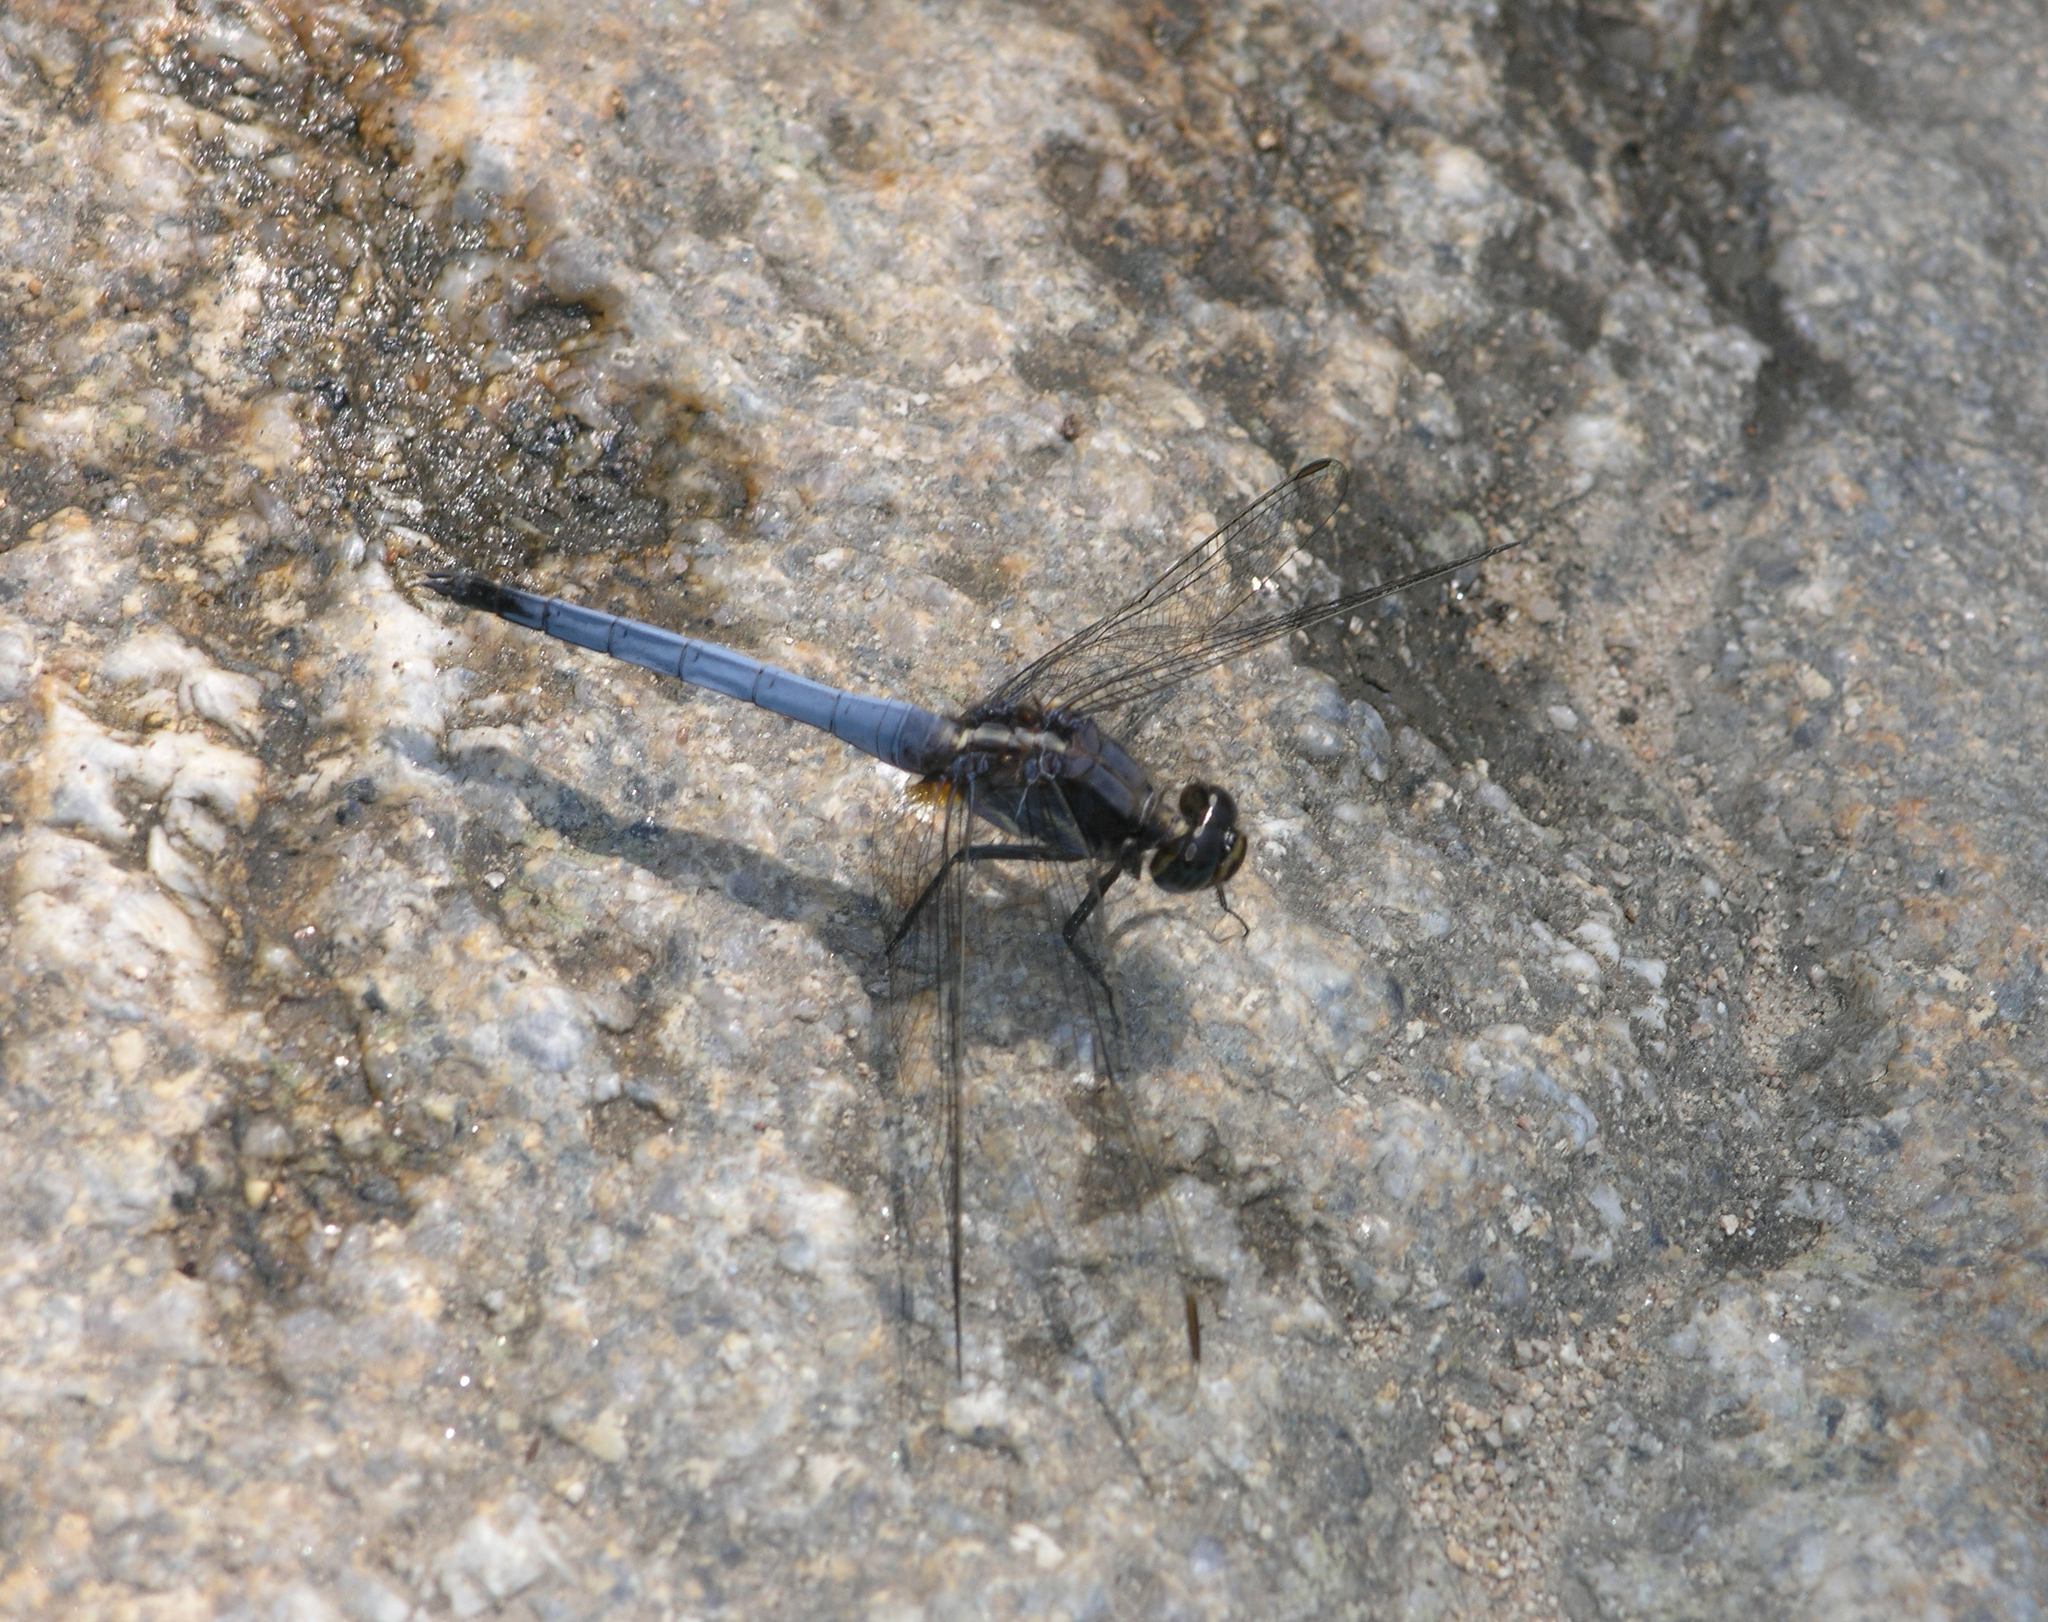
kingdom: Animalia
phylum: Arthropoda
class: Insecta
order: Odonata
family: Libellulidae
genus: Orthetrum
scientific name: Orthetrum glaucum
